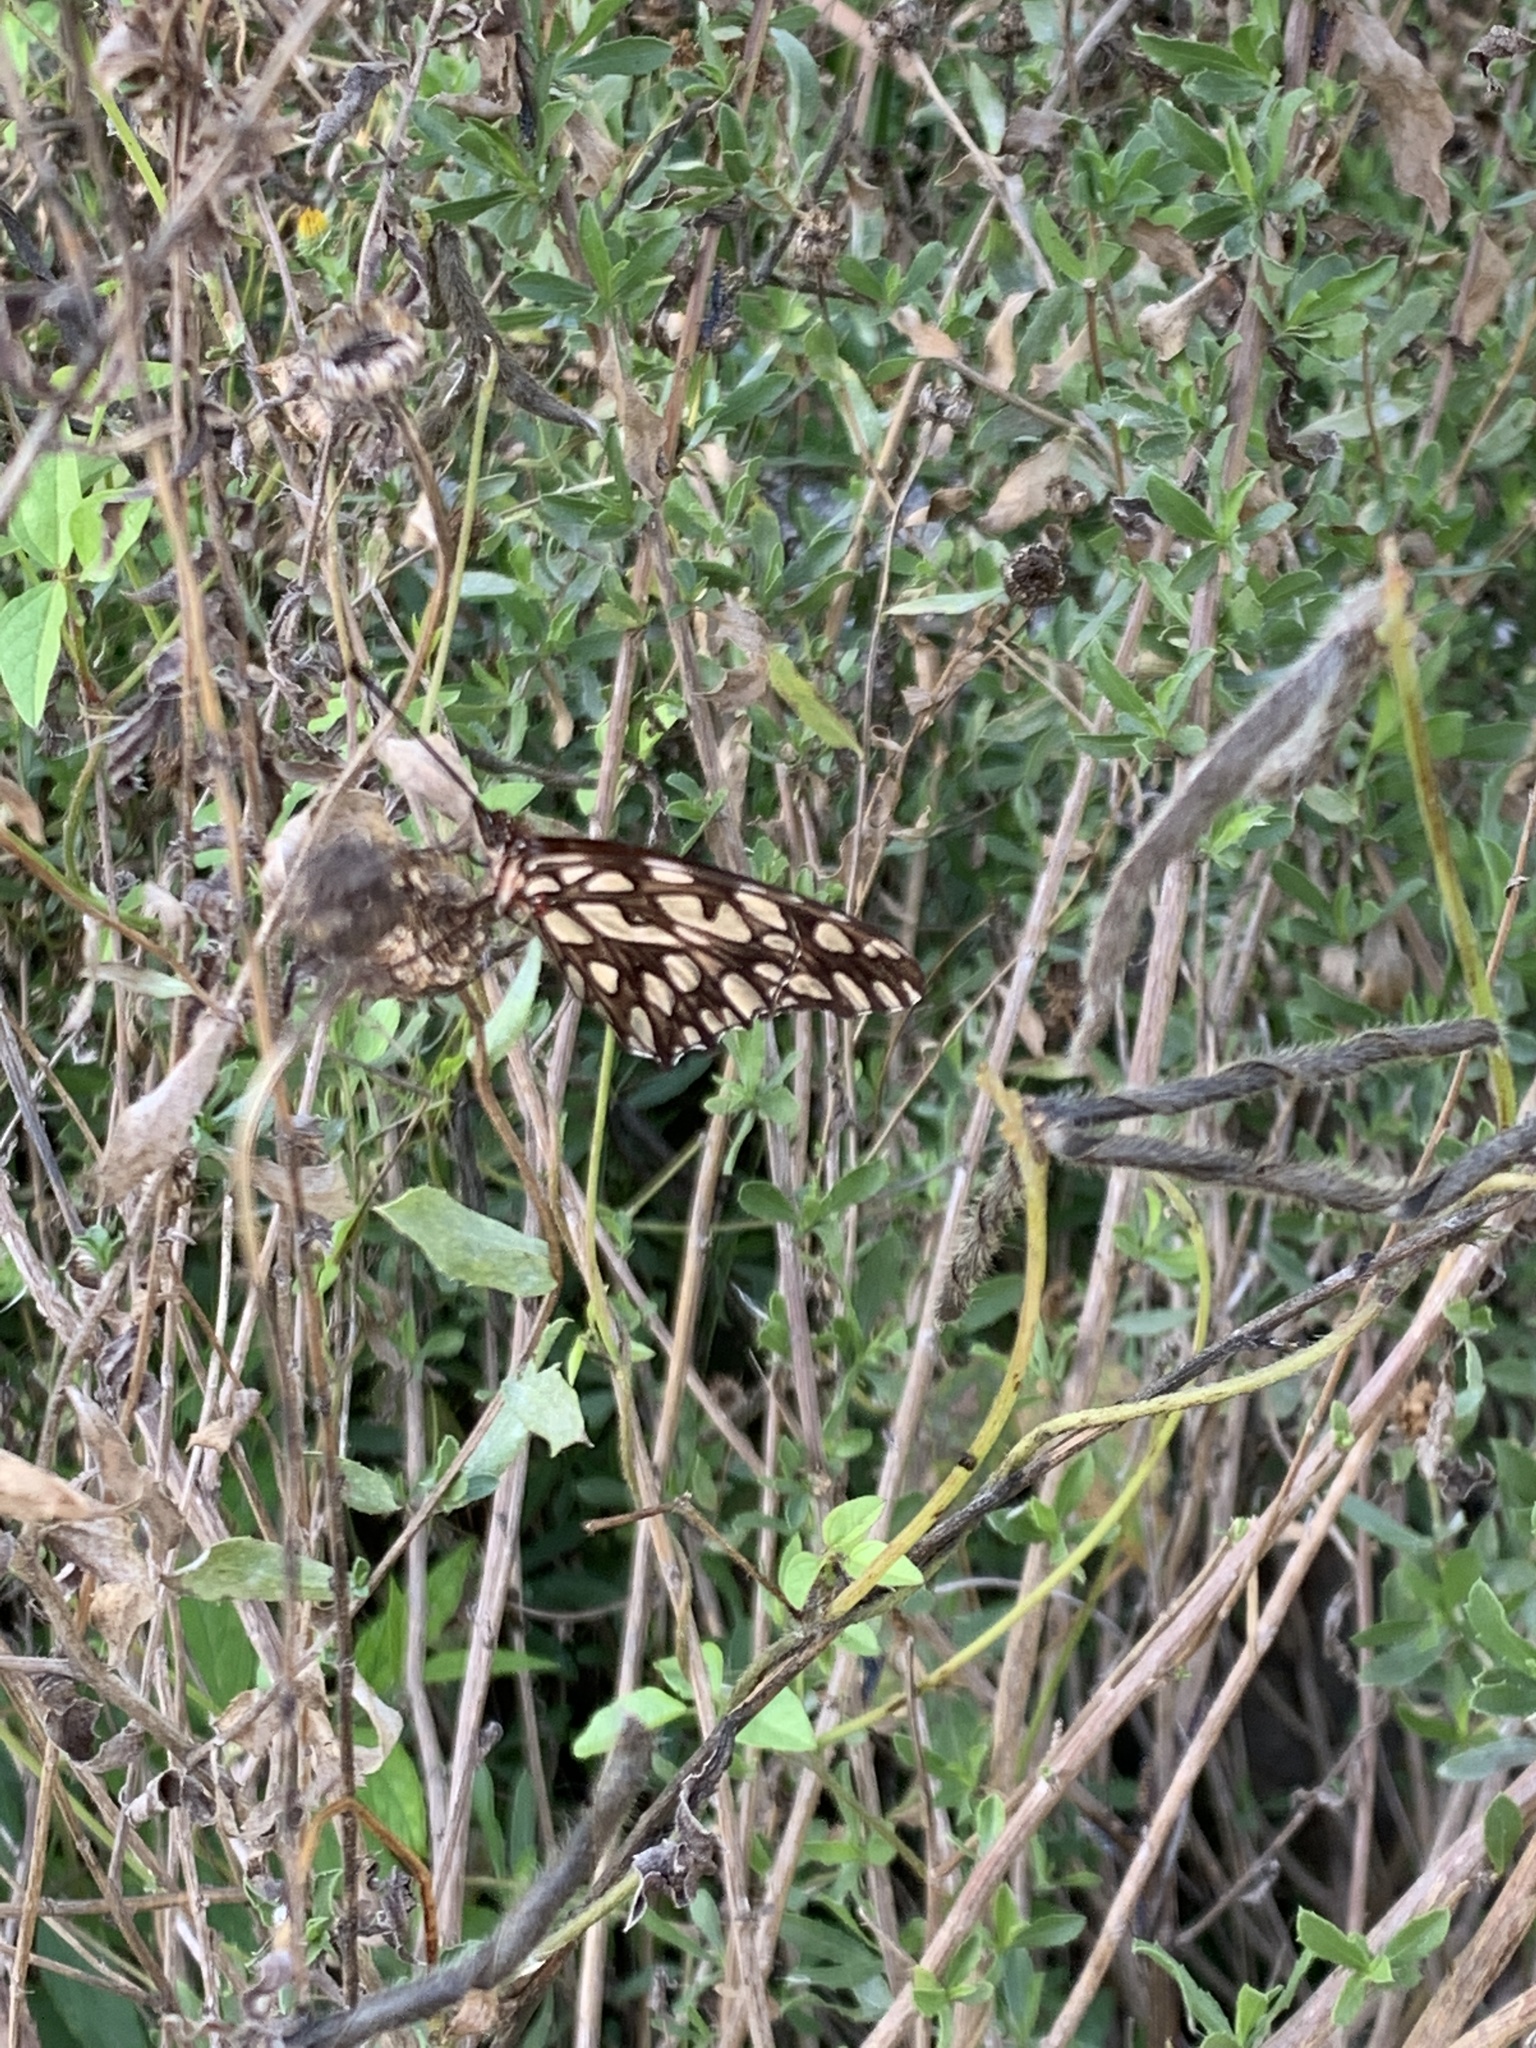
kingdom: Animalia
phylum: Arthropoda
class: Insecta
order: Lepidoptera
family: Nymphalidae
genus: Dione
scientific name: Dione moneta
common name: Mexican silverspot
